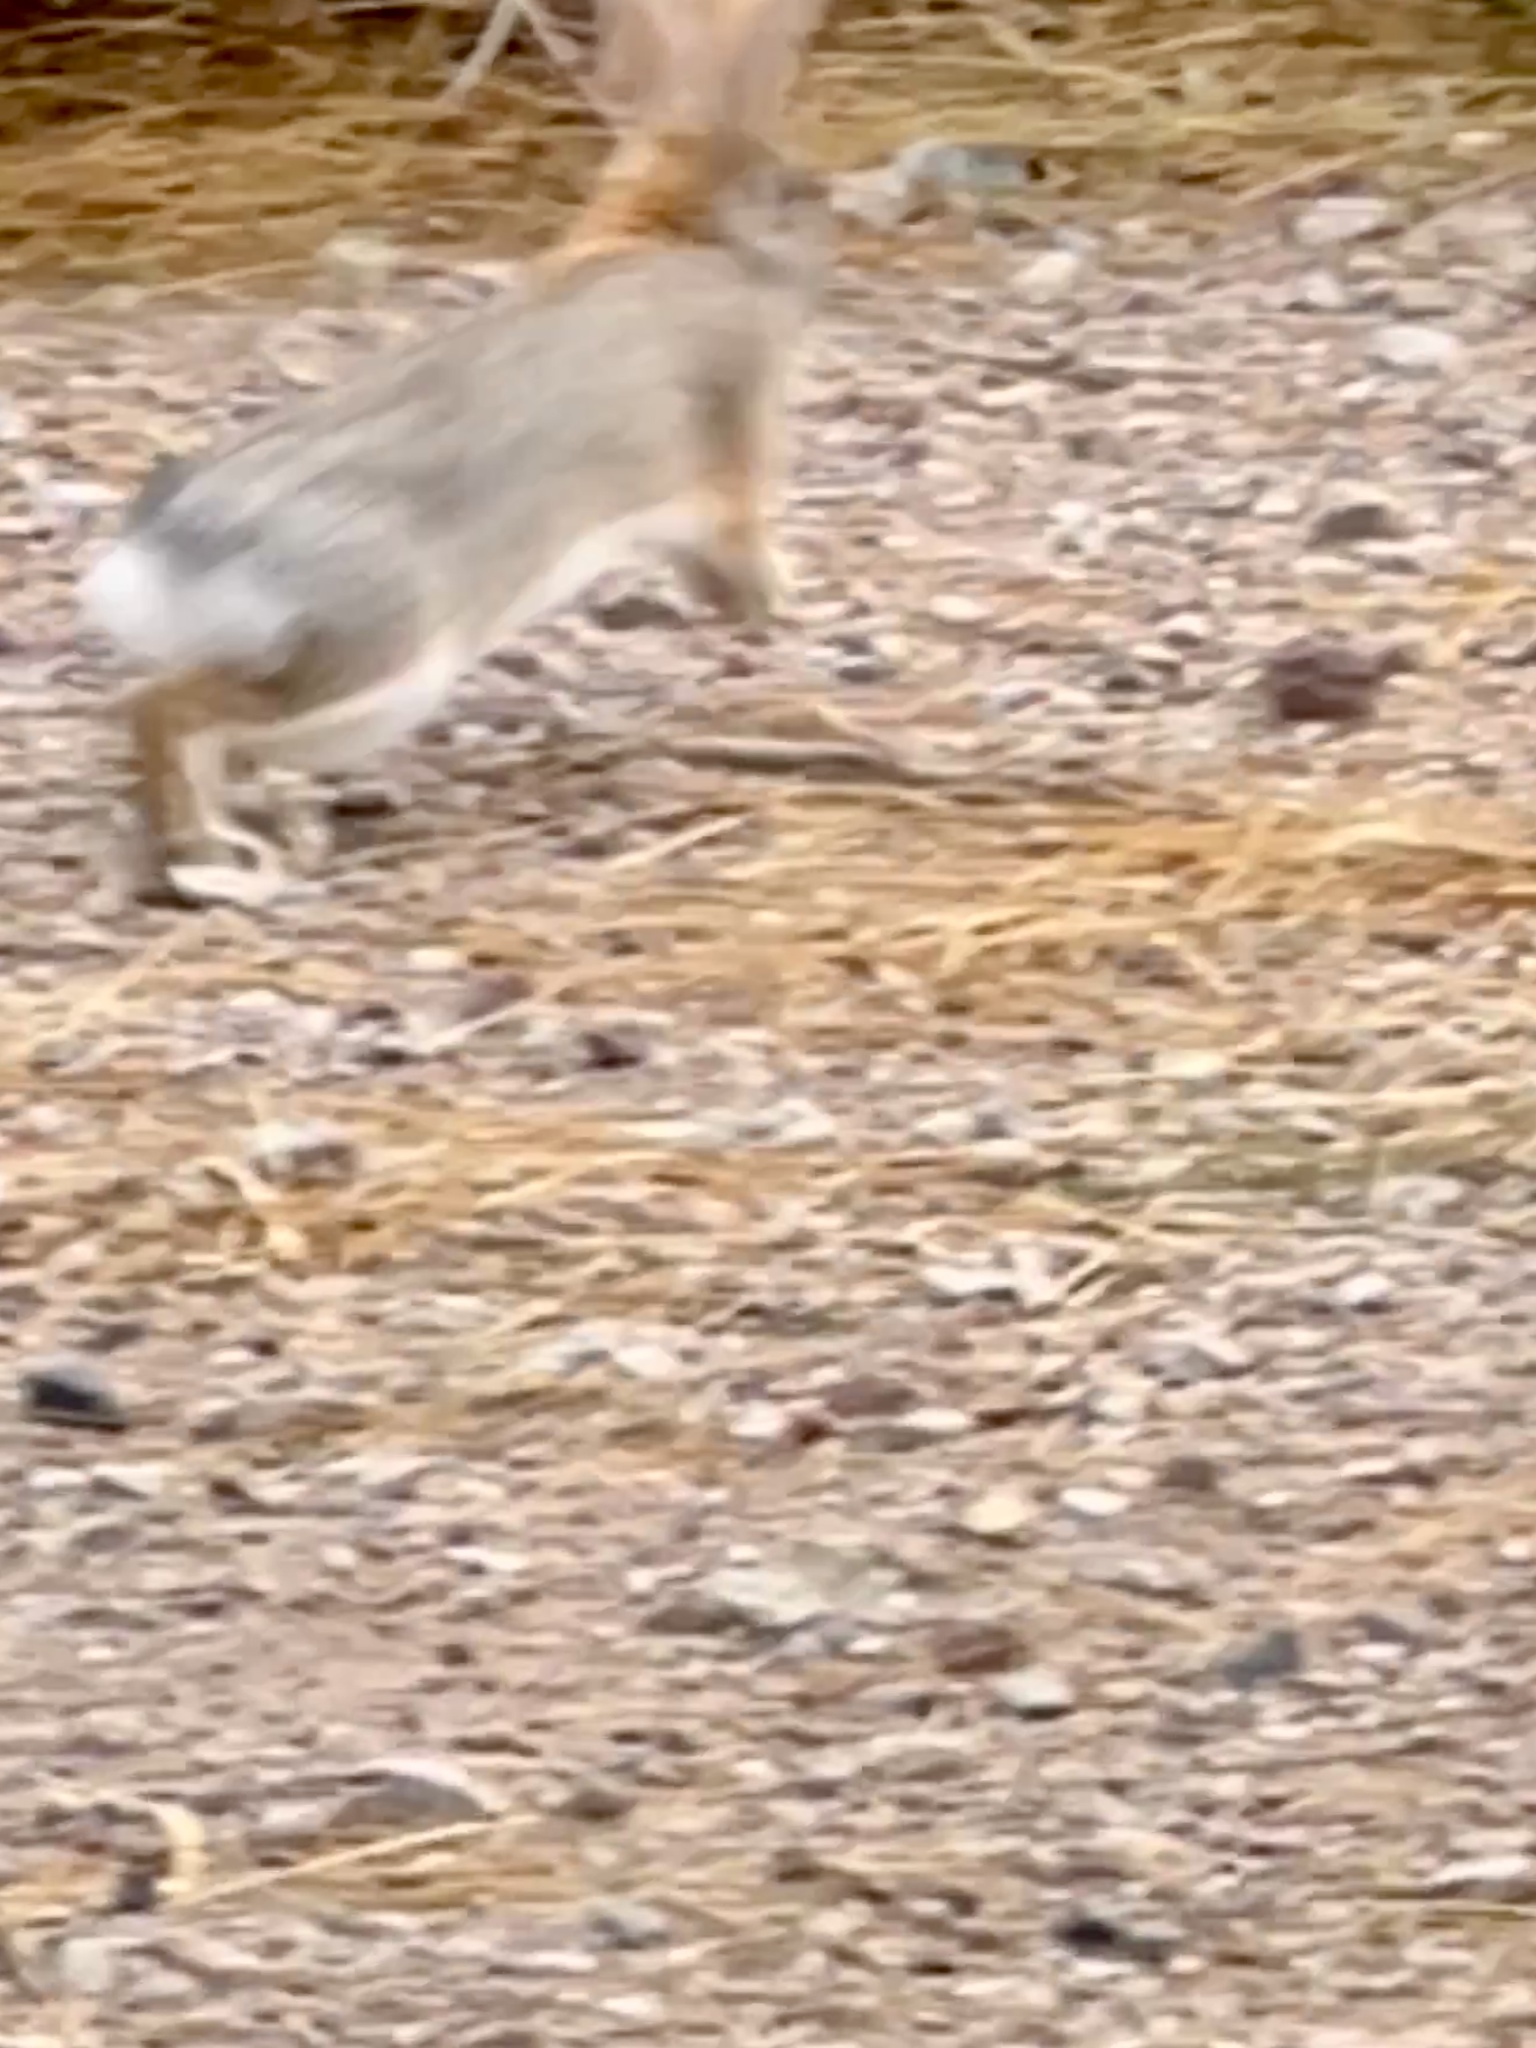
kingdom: Animalia
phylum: Chordata
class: Mammalia
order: Lagomorpha
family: Leporidae
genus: Sylvilagus
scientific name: Sylvilagus audubonii
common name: Desert cottontail
